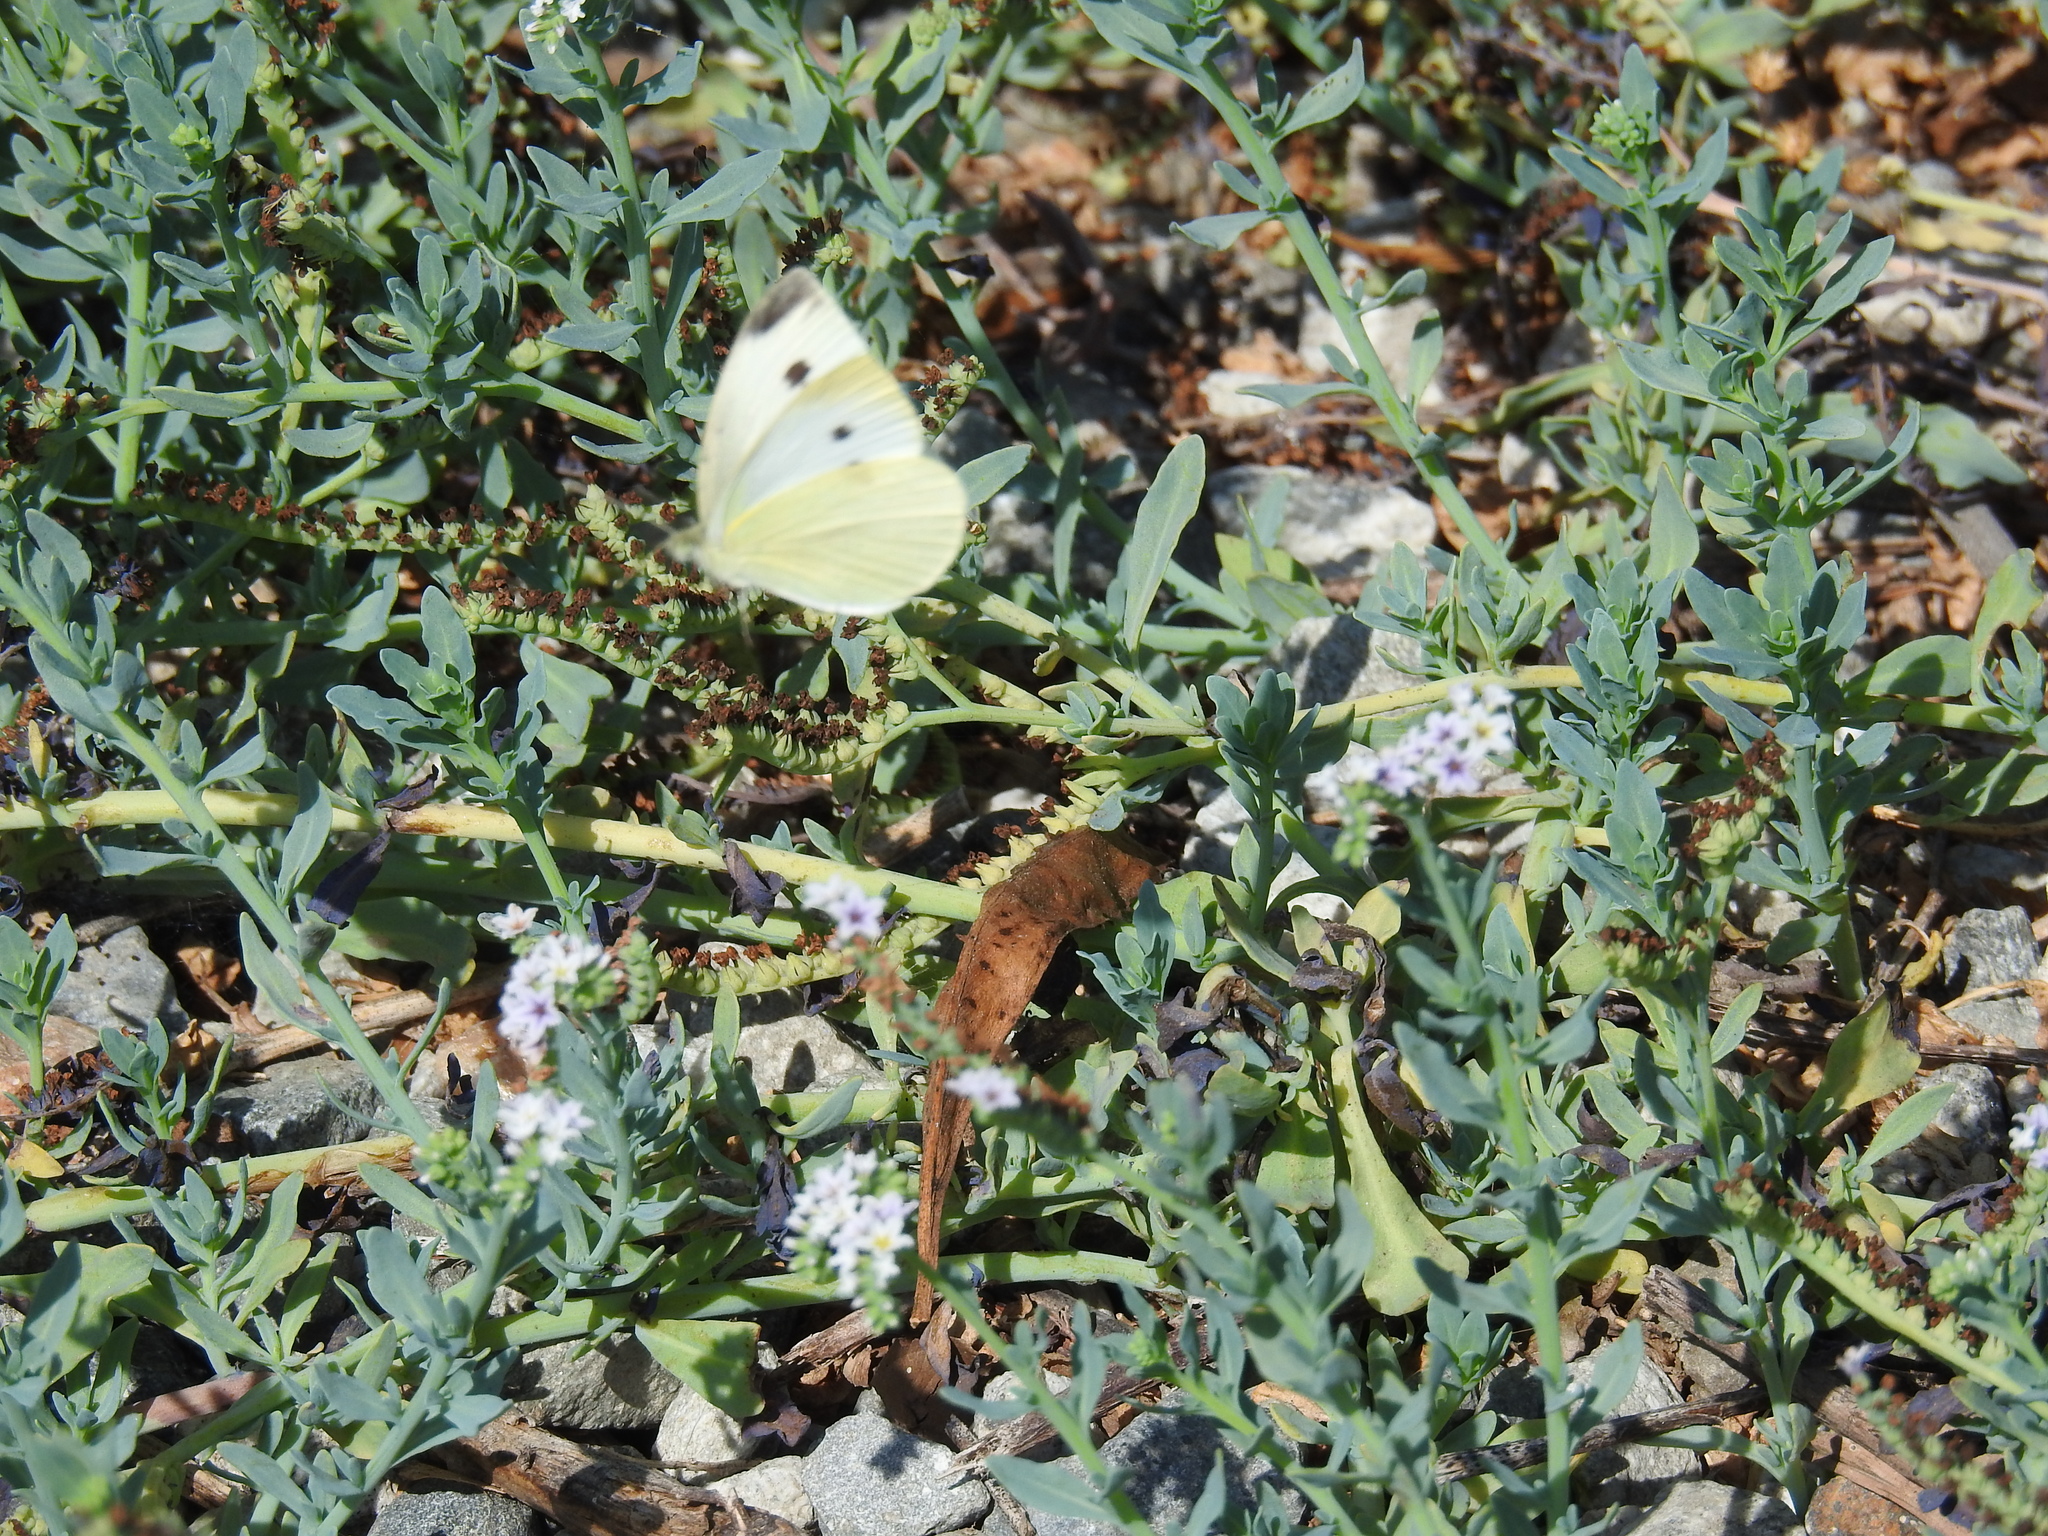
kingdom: Animalia
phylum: Arthropoda
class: Insecta
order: Lepidoptera
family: Pieridae
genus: Pieris
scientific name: Pieris rapae
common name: Small white
